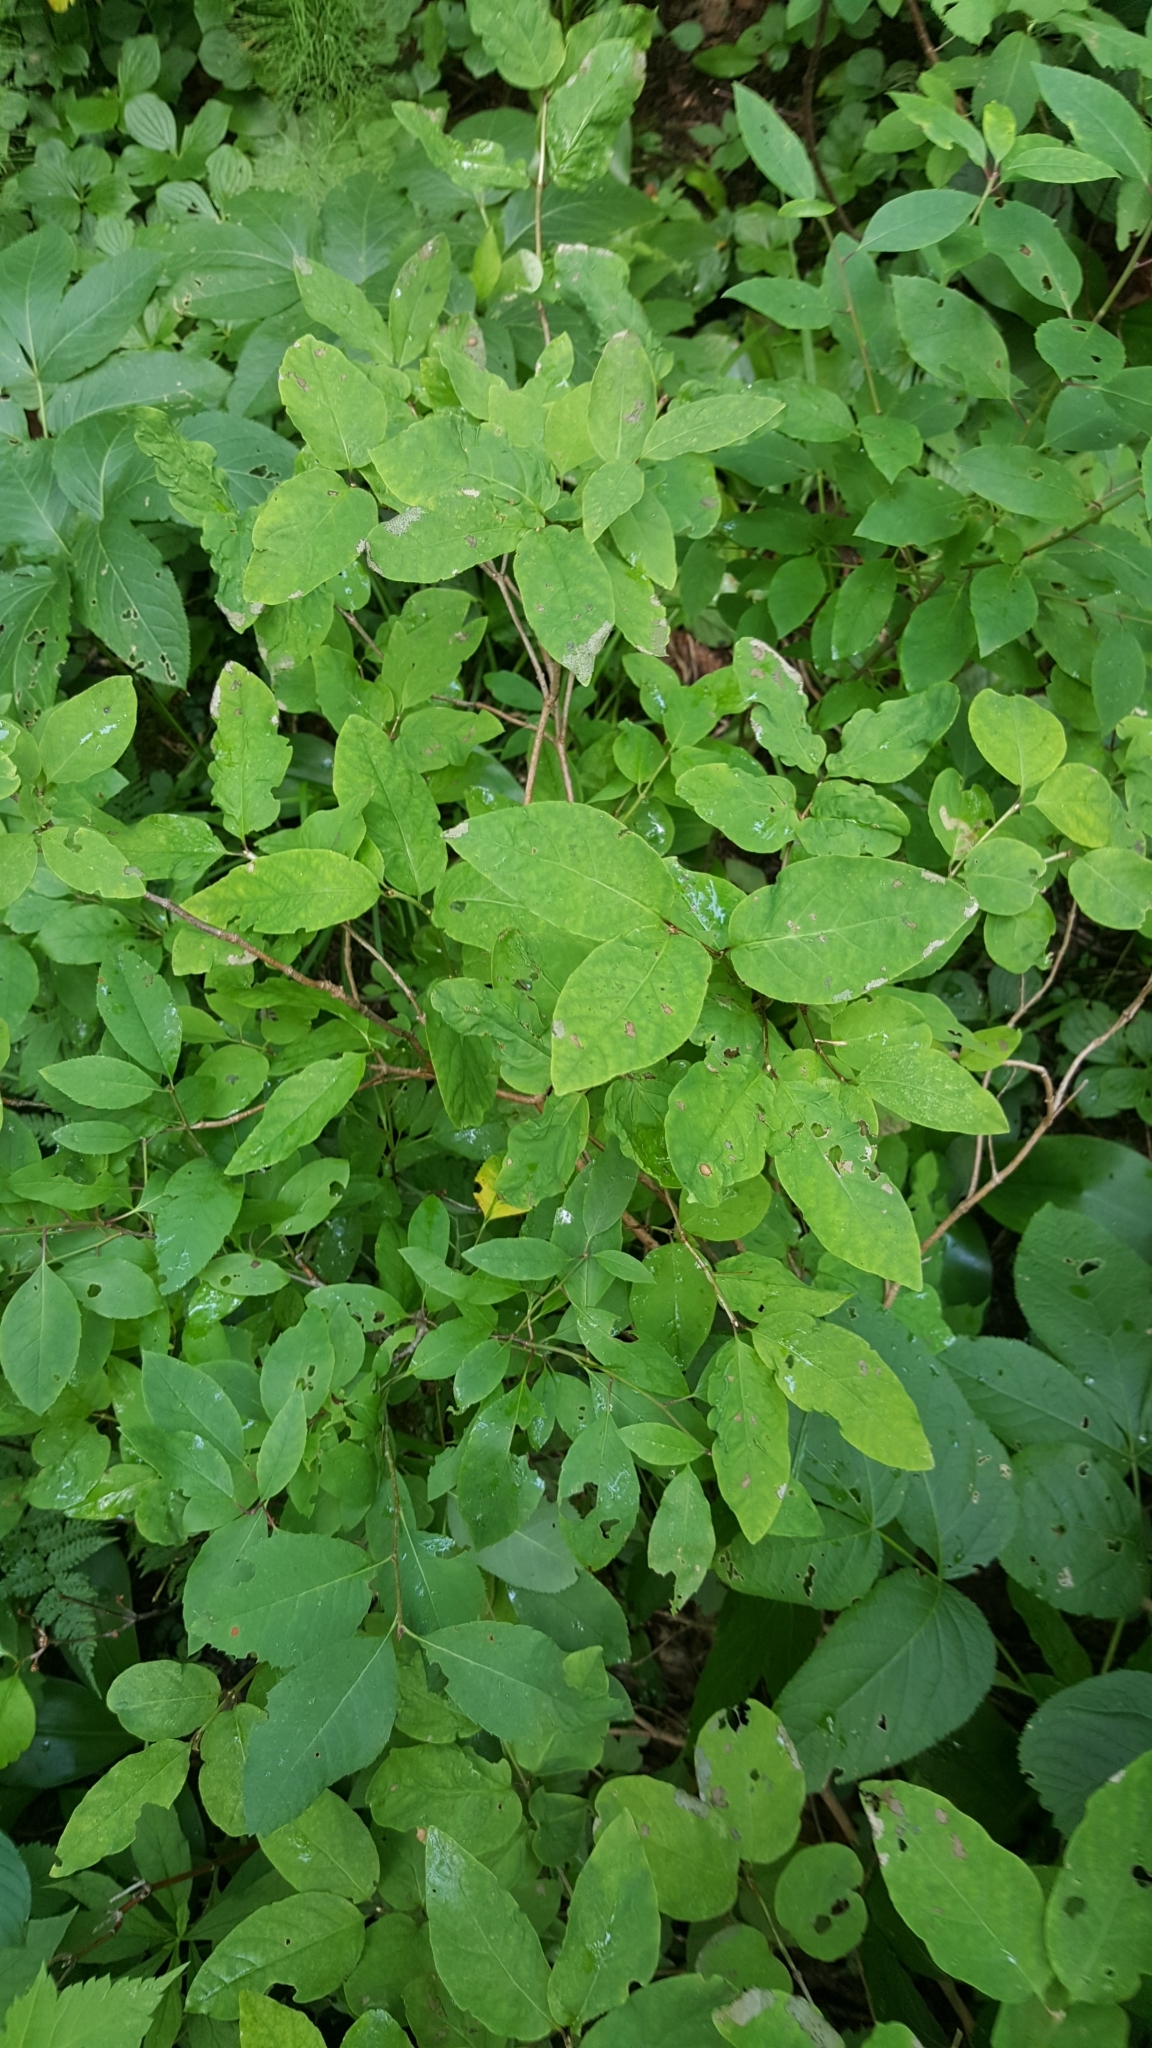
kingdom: Plantae
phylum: Tracheophyta
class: Magnoliopsida
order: Dipsacales
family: Caprifoliaceae
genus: Lonicera
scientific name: Lonicera canadensis
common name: American fly-honeysuckle
